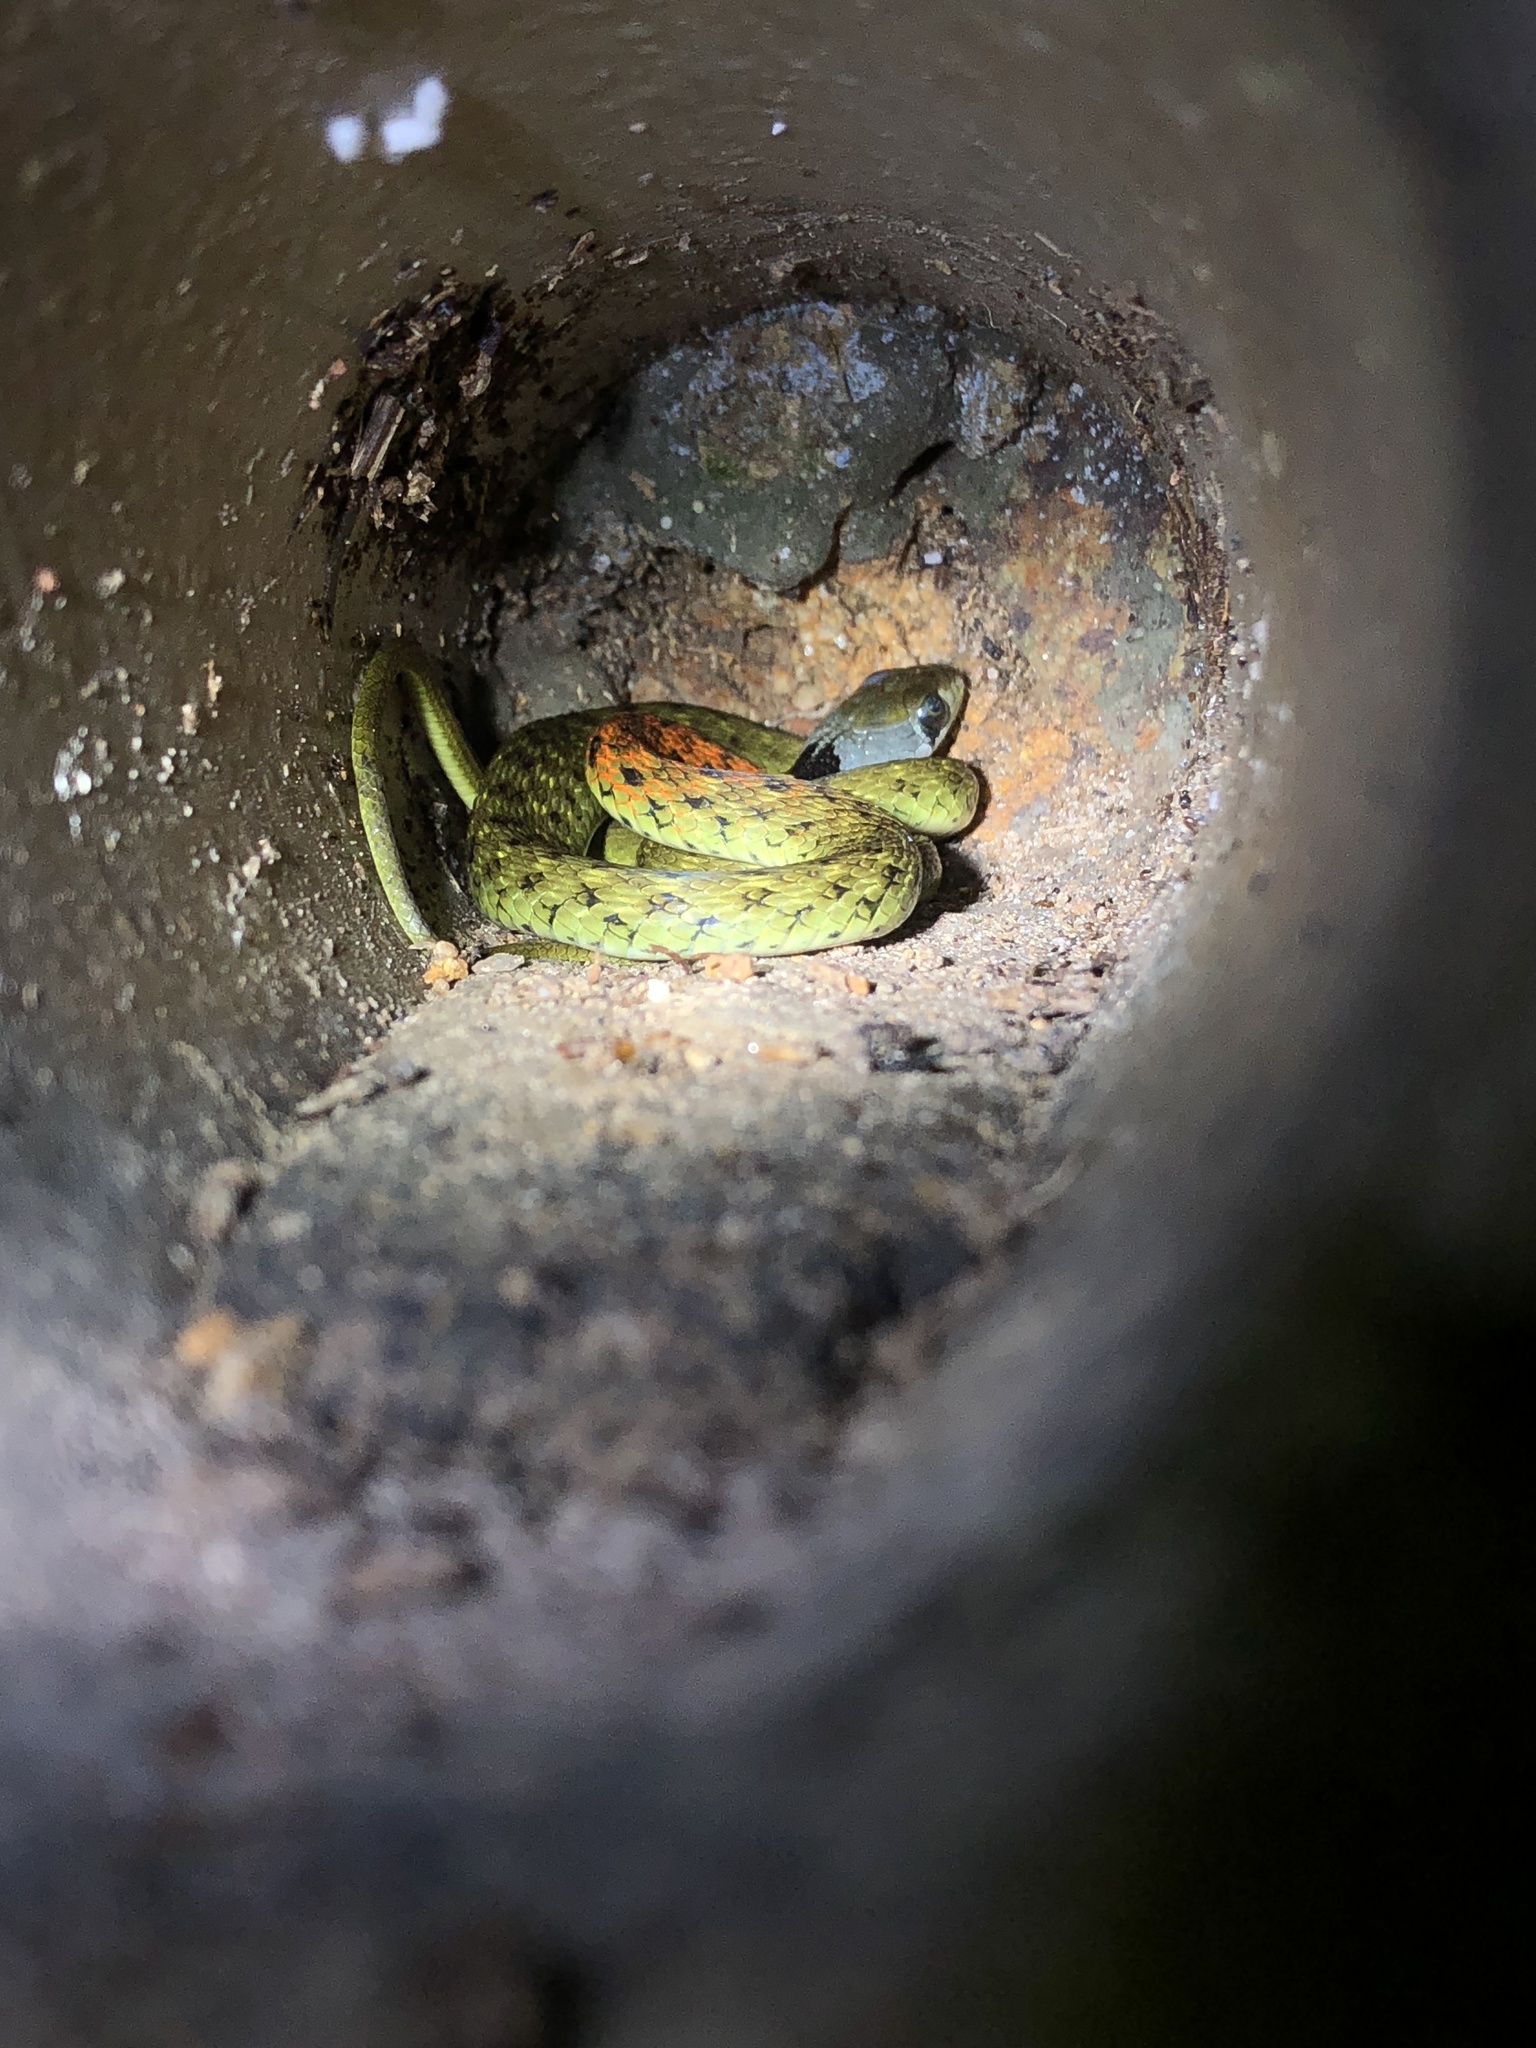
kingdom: Animalia
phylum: Chordata
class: Squamata
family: Colubridae
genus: Rhabdophis
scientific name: Rhabdophis helleri
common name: Heller’s red-necked keelback
